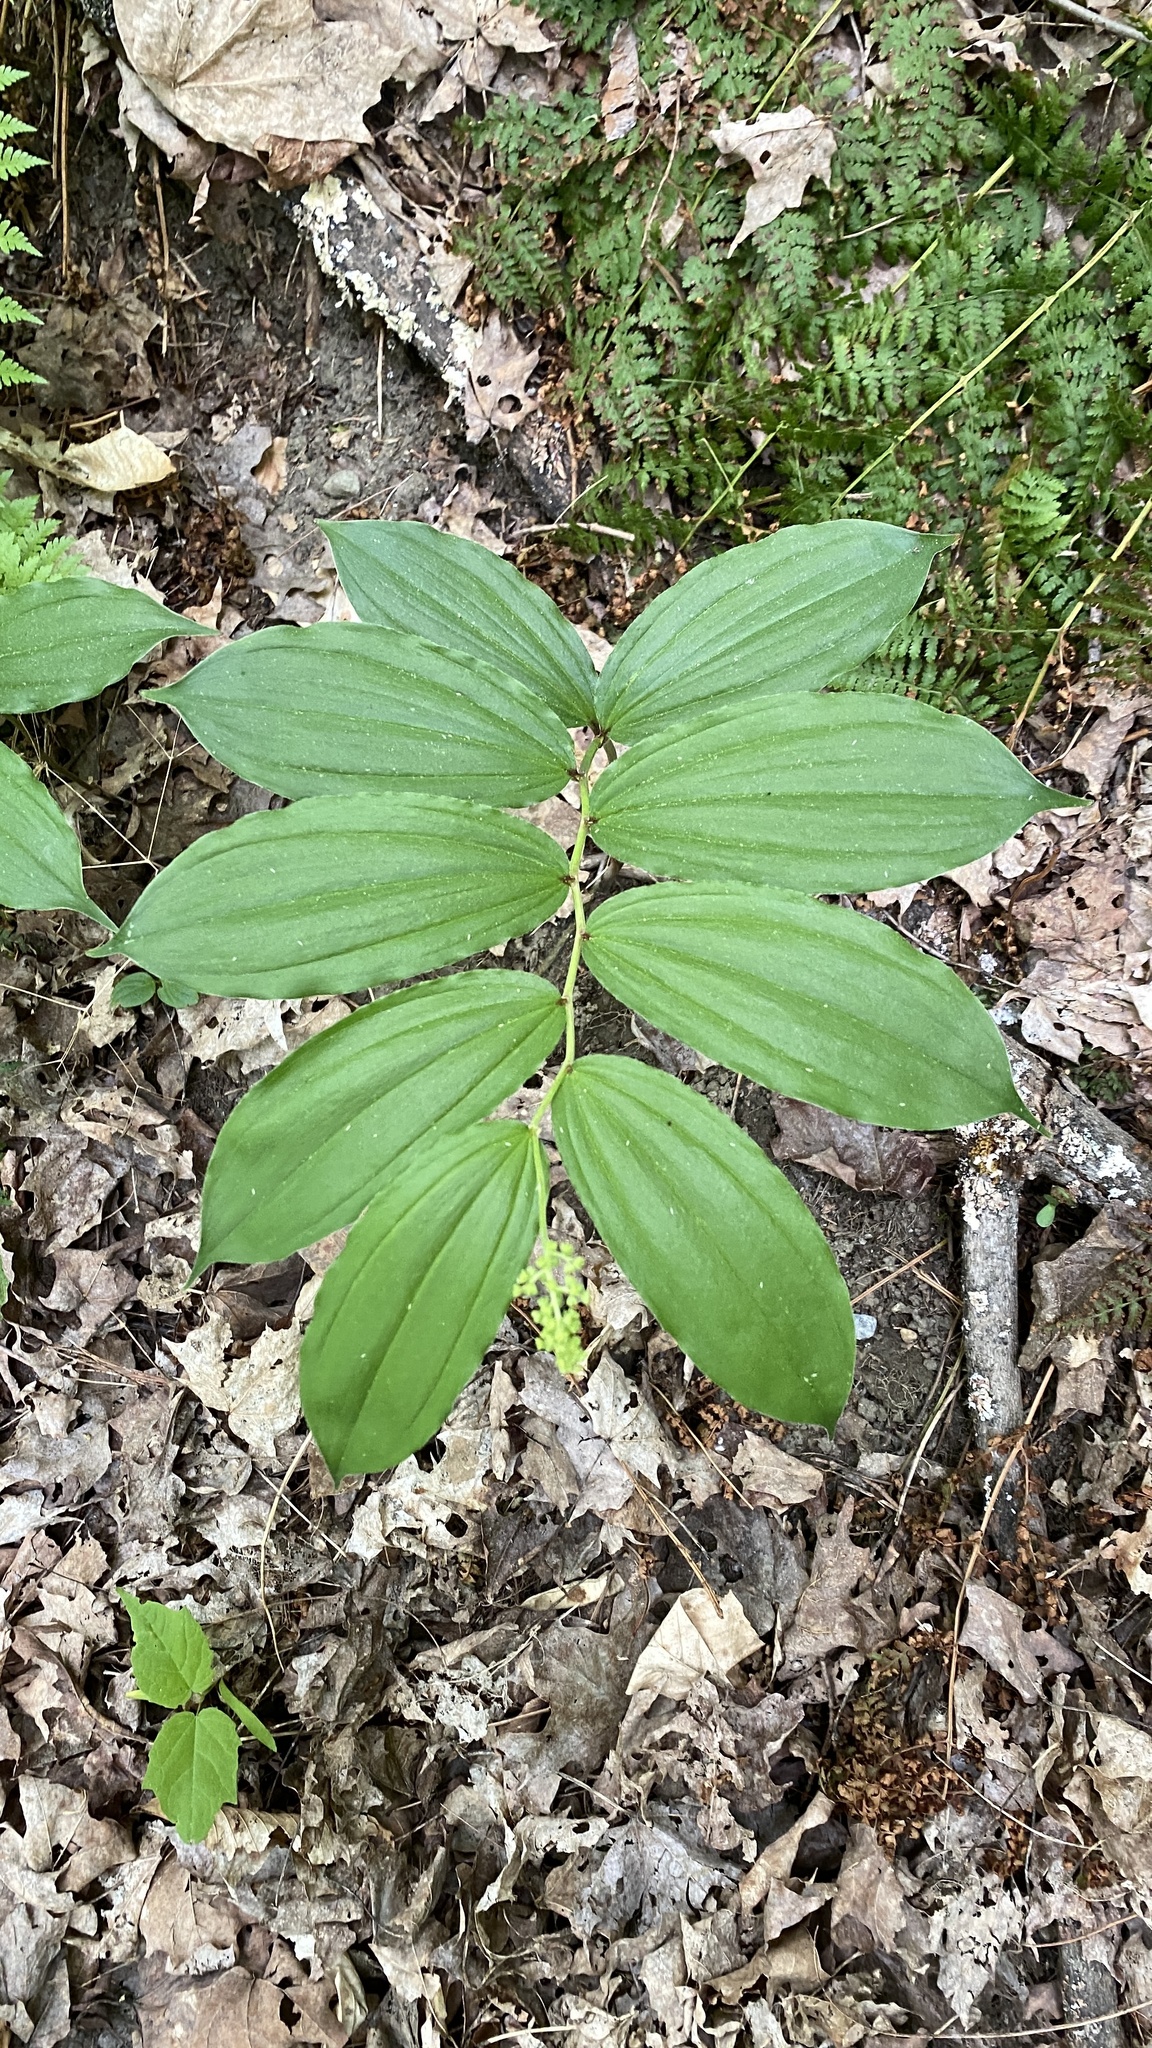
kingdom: Plantae
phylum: Tracheophyta
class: Liliopsida
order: Asparagales
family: Asparagaceae
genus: Maianthemum
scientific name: Maianthemum racemosum
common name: False spikenard
